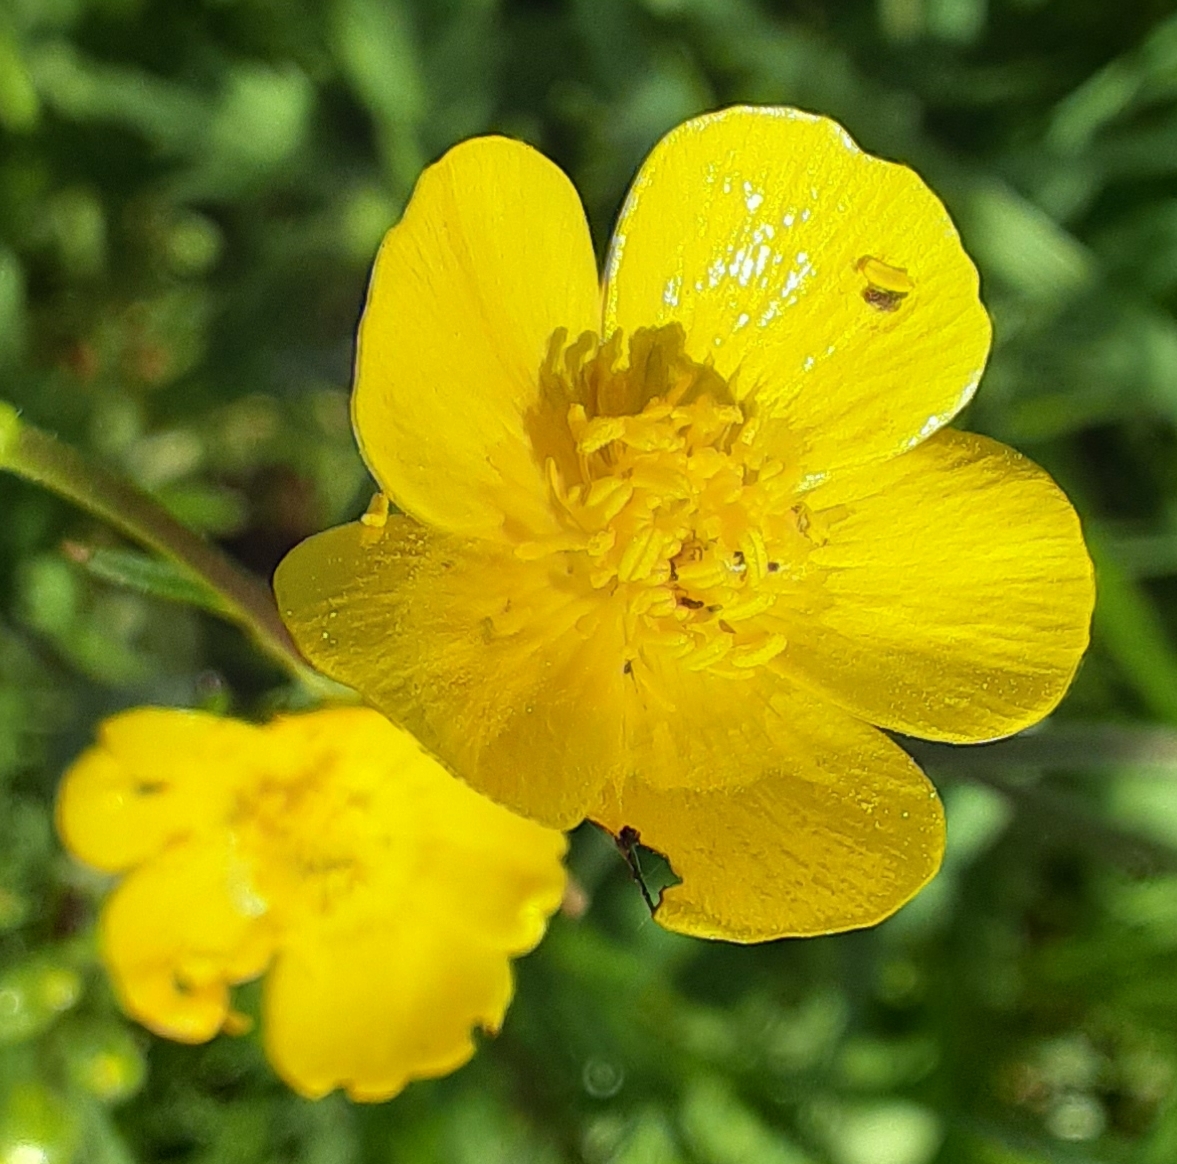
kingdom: Plantae
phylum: Tracheophyta
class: Magnoliopsida
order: Ranunculales
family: Ranunculaceae
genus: Ranunculus
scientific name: Ranunculus acris
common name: Meadow buttercup
